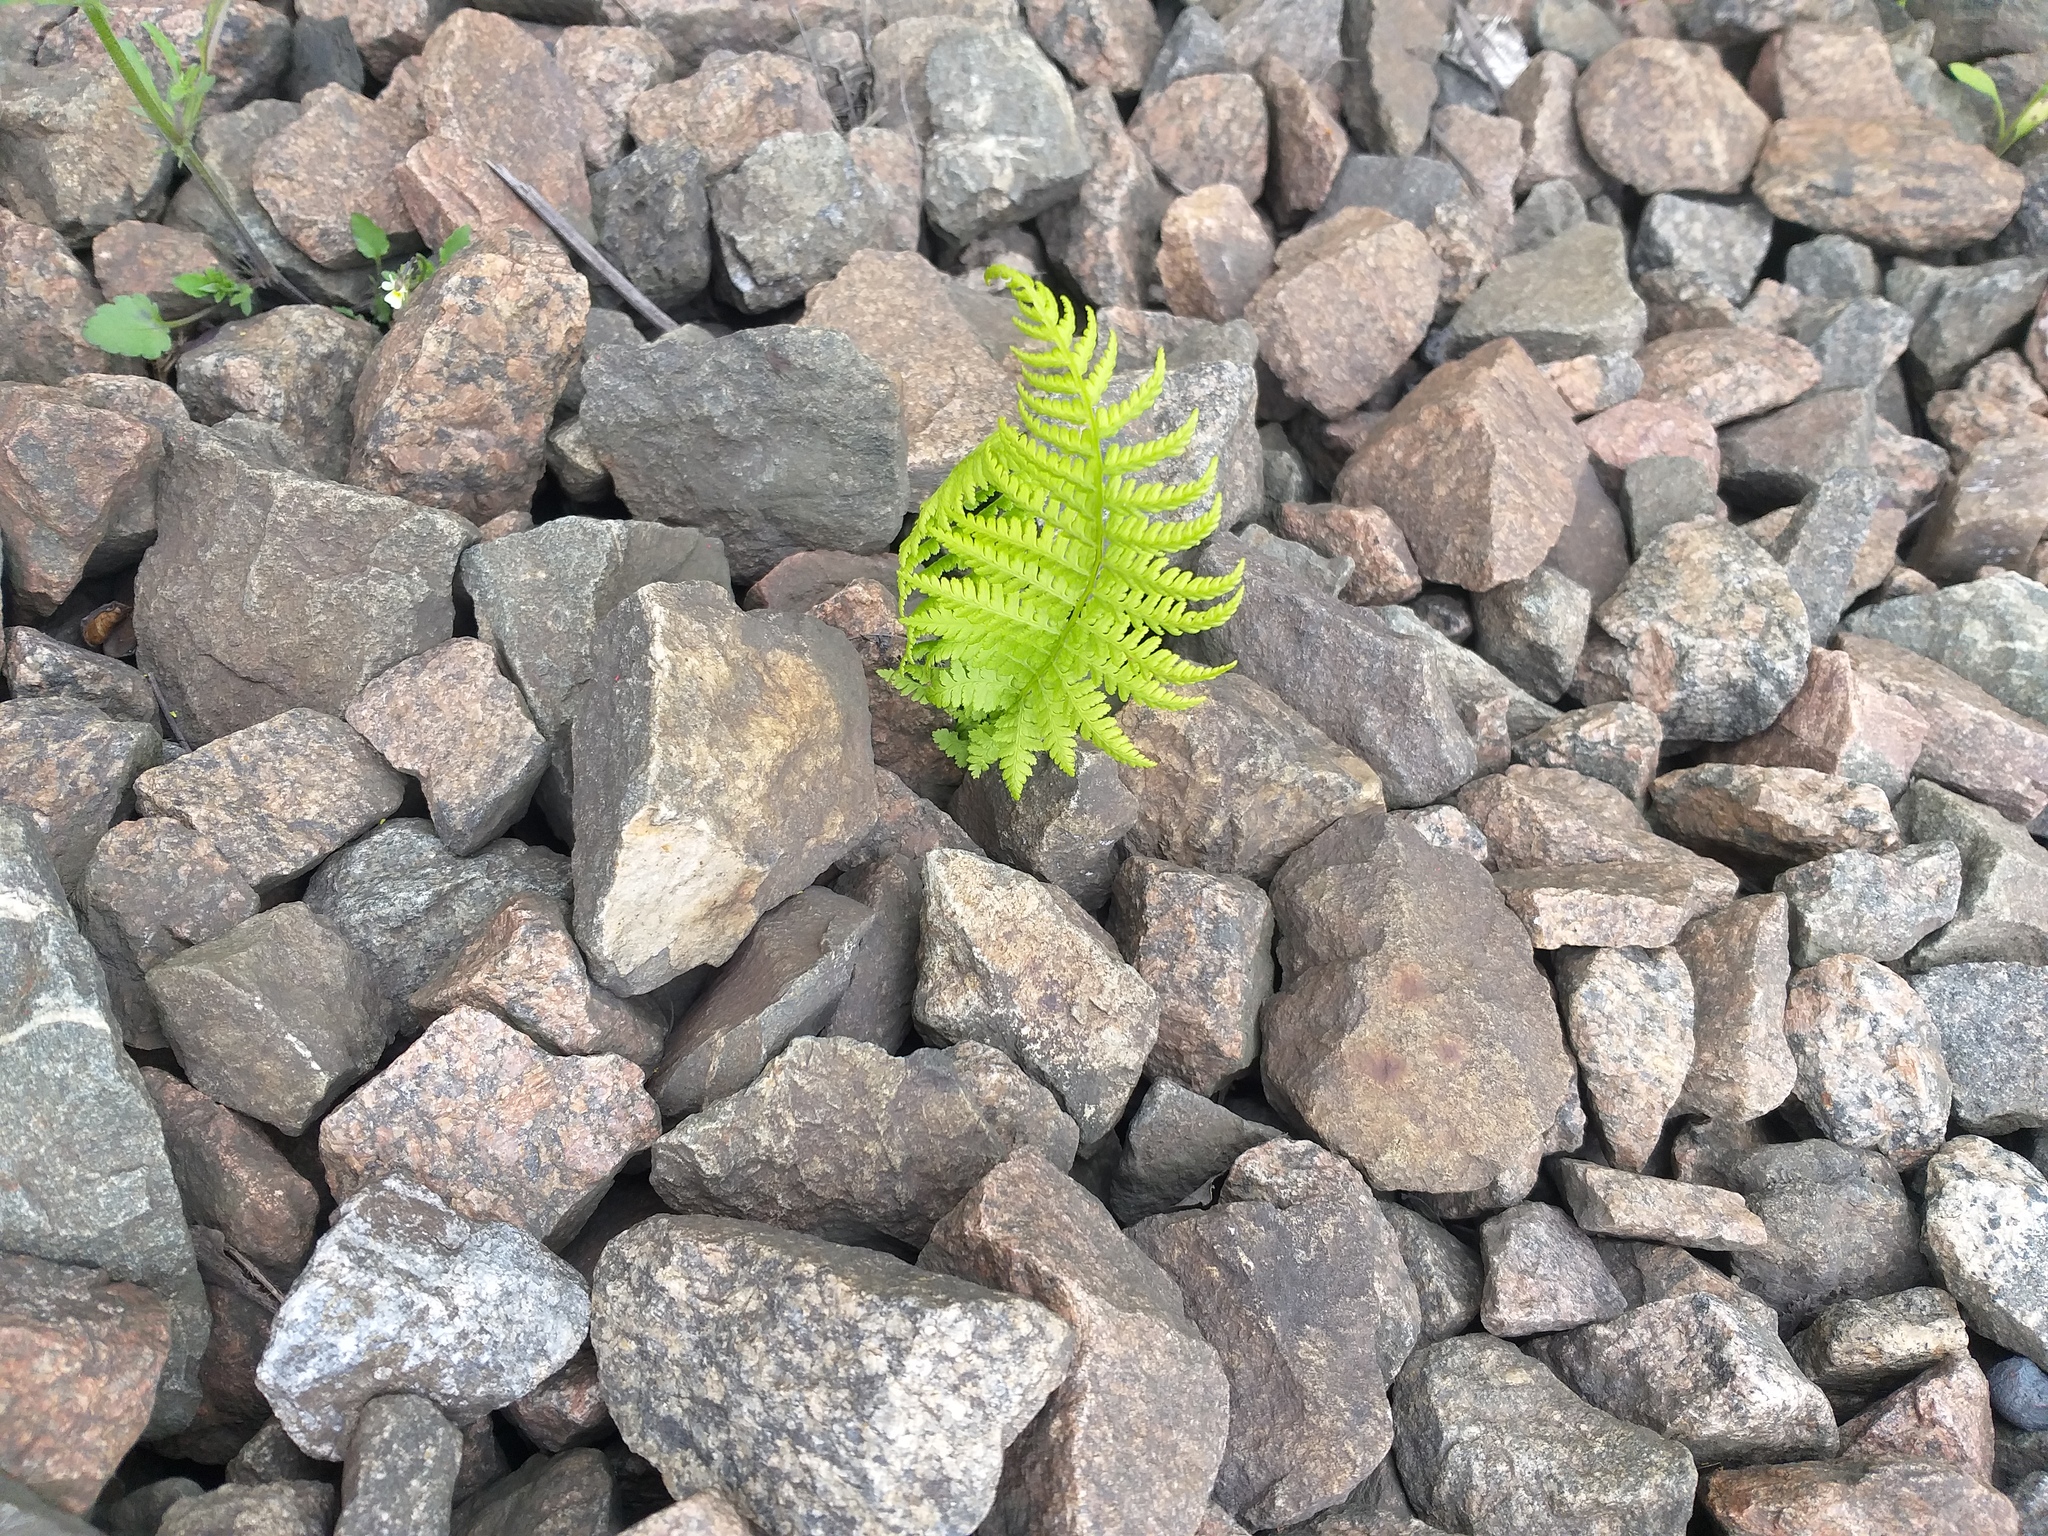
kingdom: Plantae
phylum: Tracheophyta
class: Polypodiopsida
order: Polypodiales
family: Athyriaceae
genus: Athyrium
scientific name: Athyrium filix-femina
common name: Lady fern
